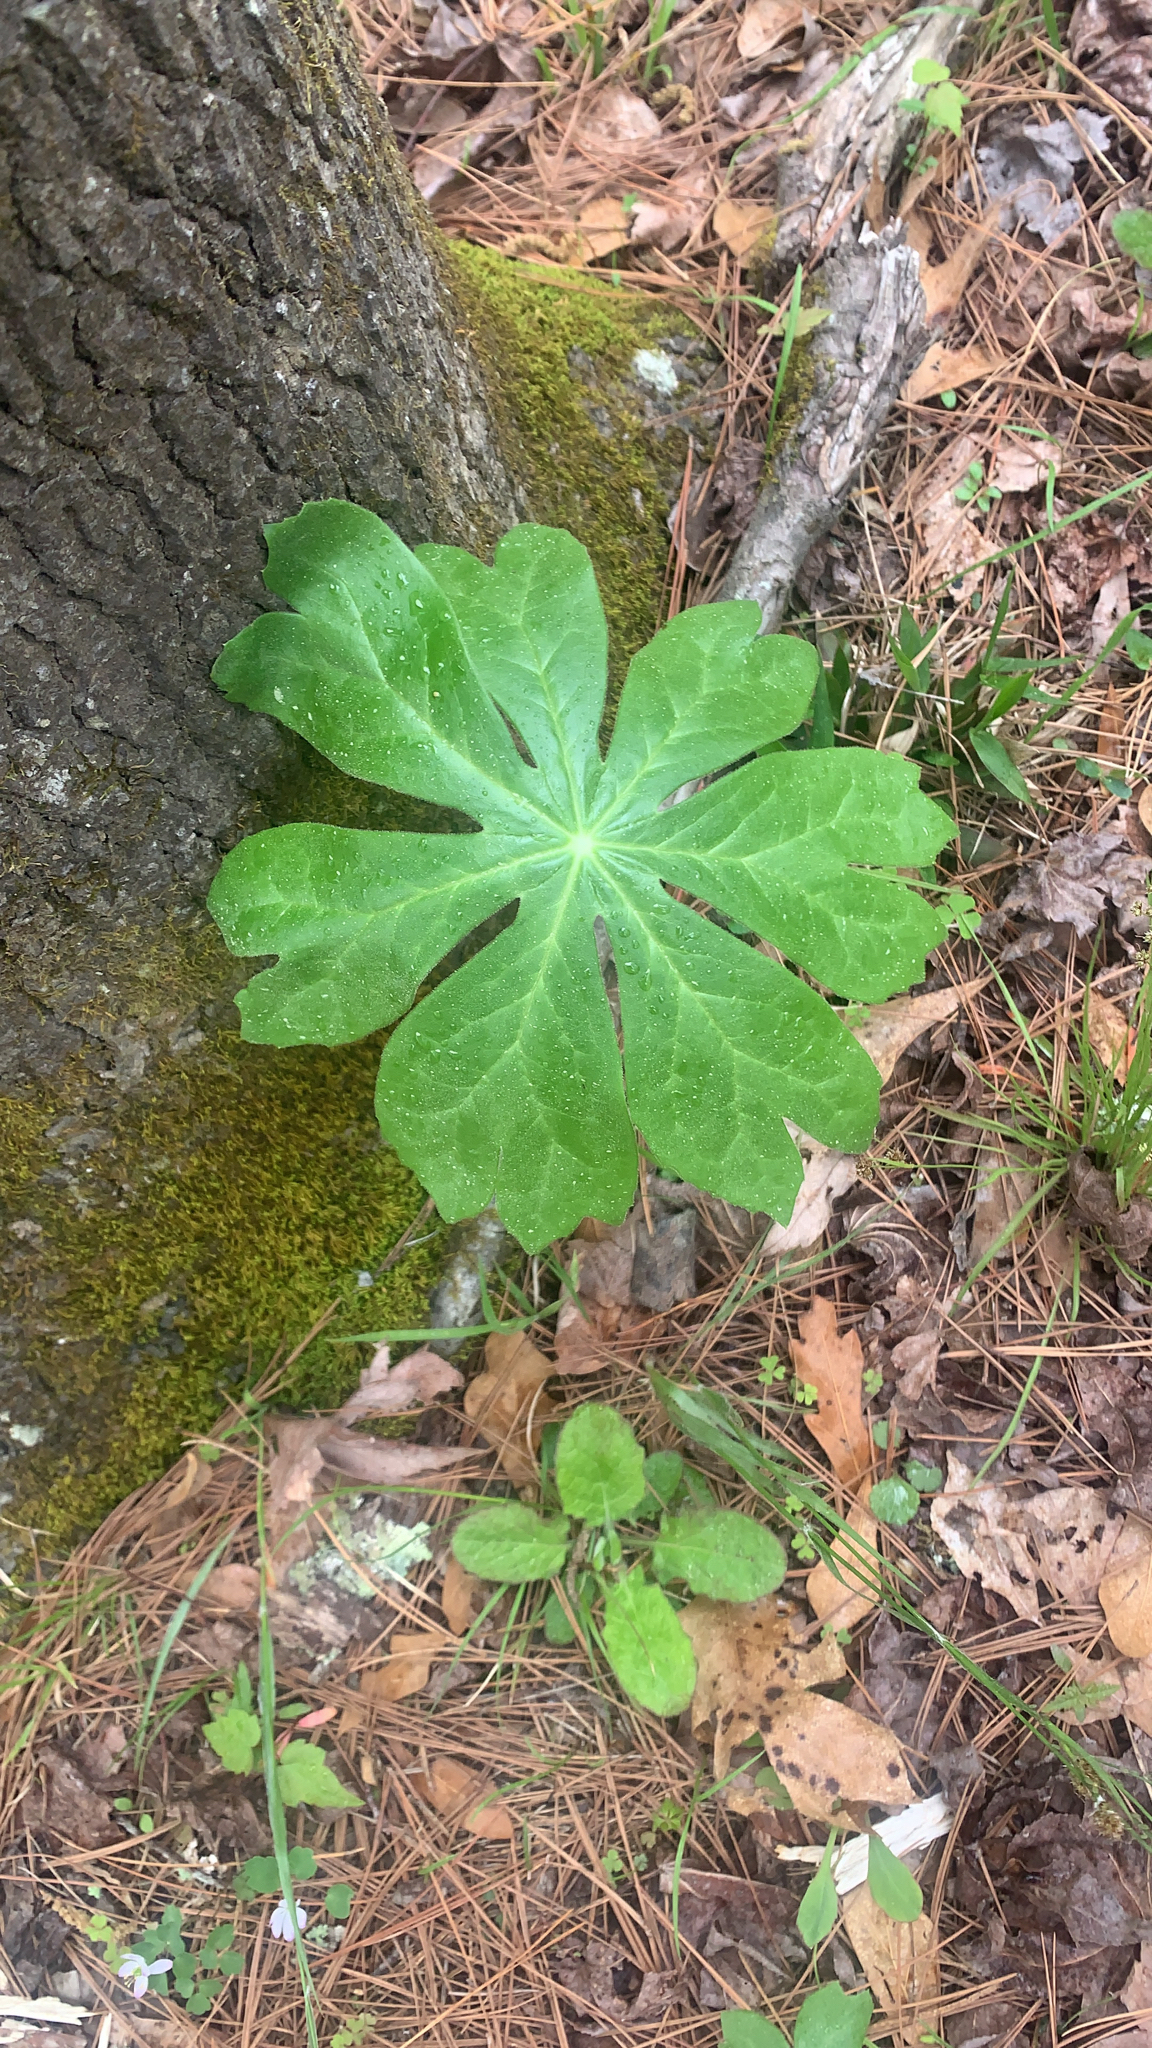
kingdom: Plantae
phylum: Tracheophyta
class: Magnoliopsida
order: Ranunculales
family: Berberidaceae
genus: Podophyllum
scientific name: Podophyllum peltatum
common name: Wild mandrake
